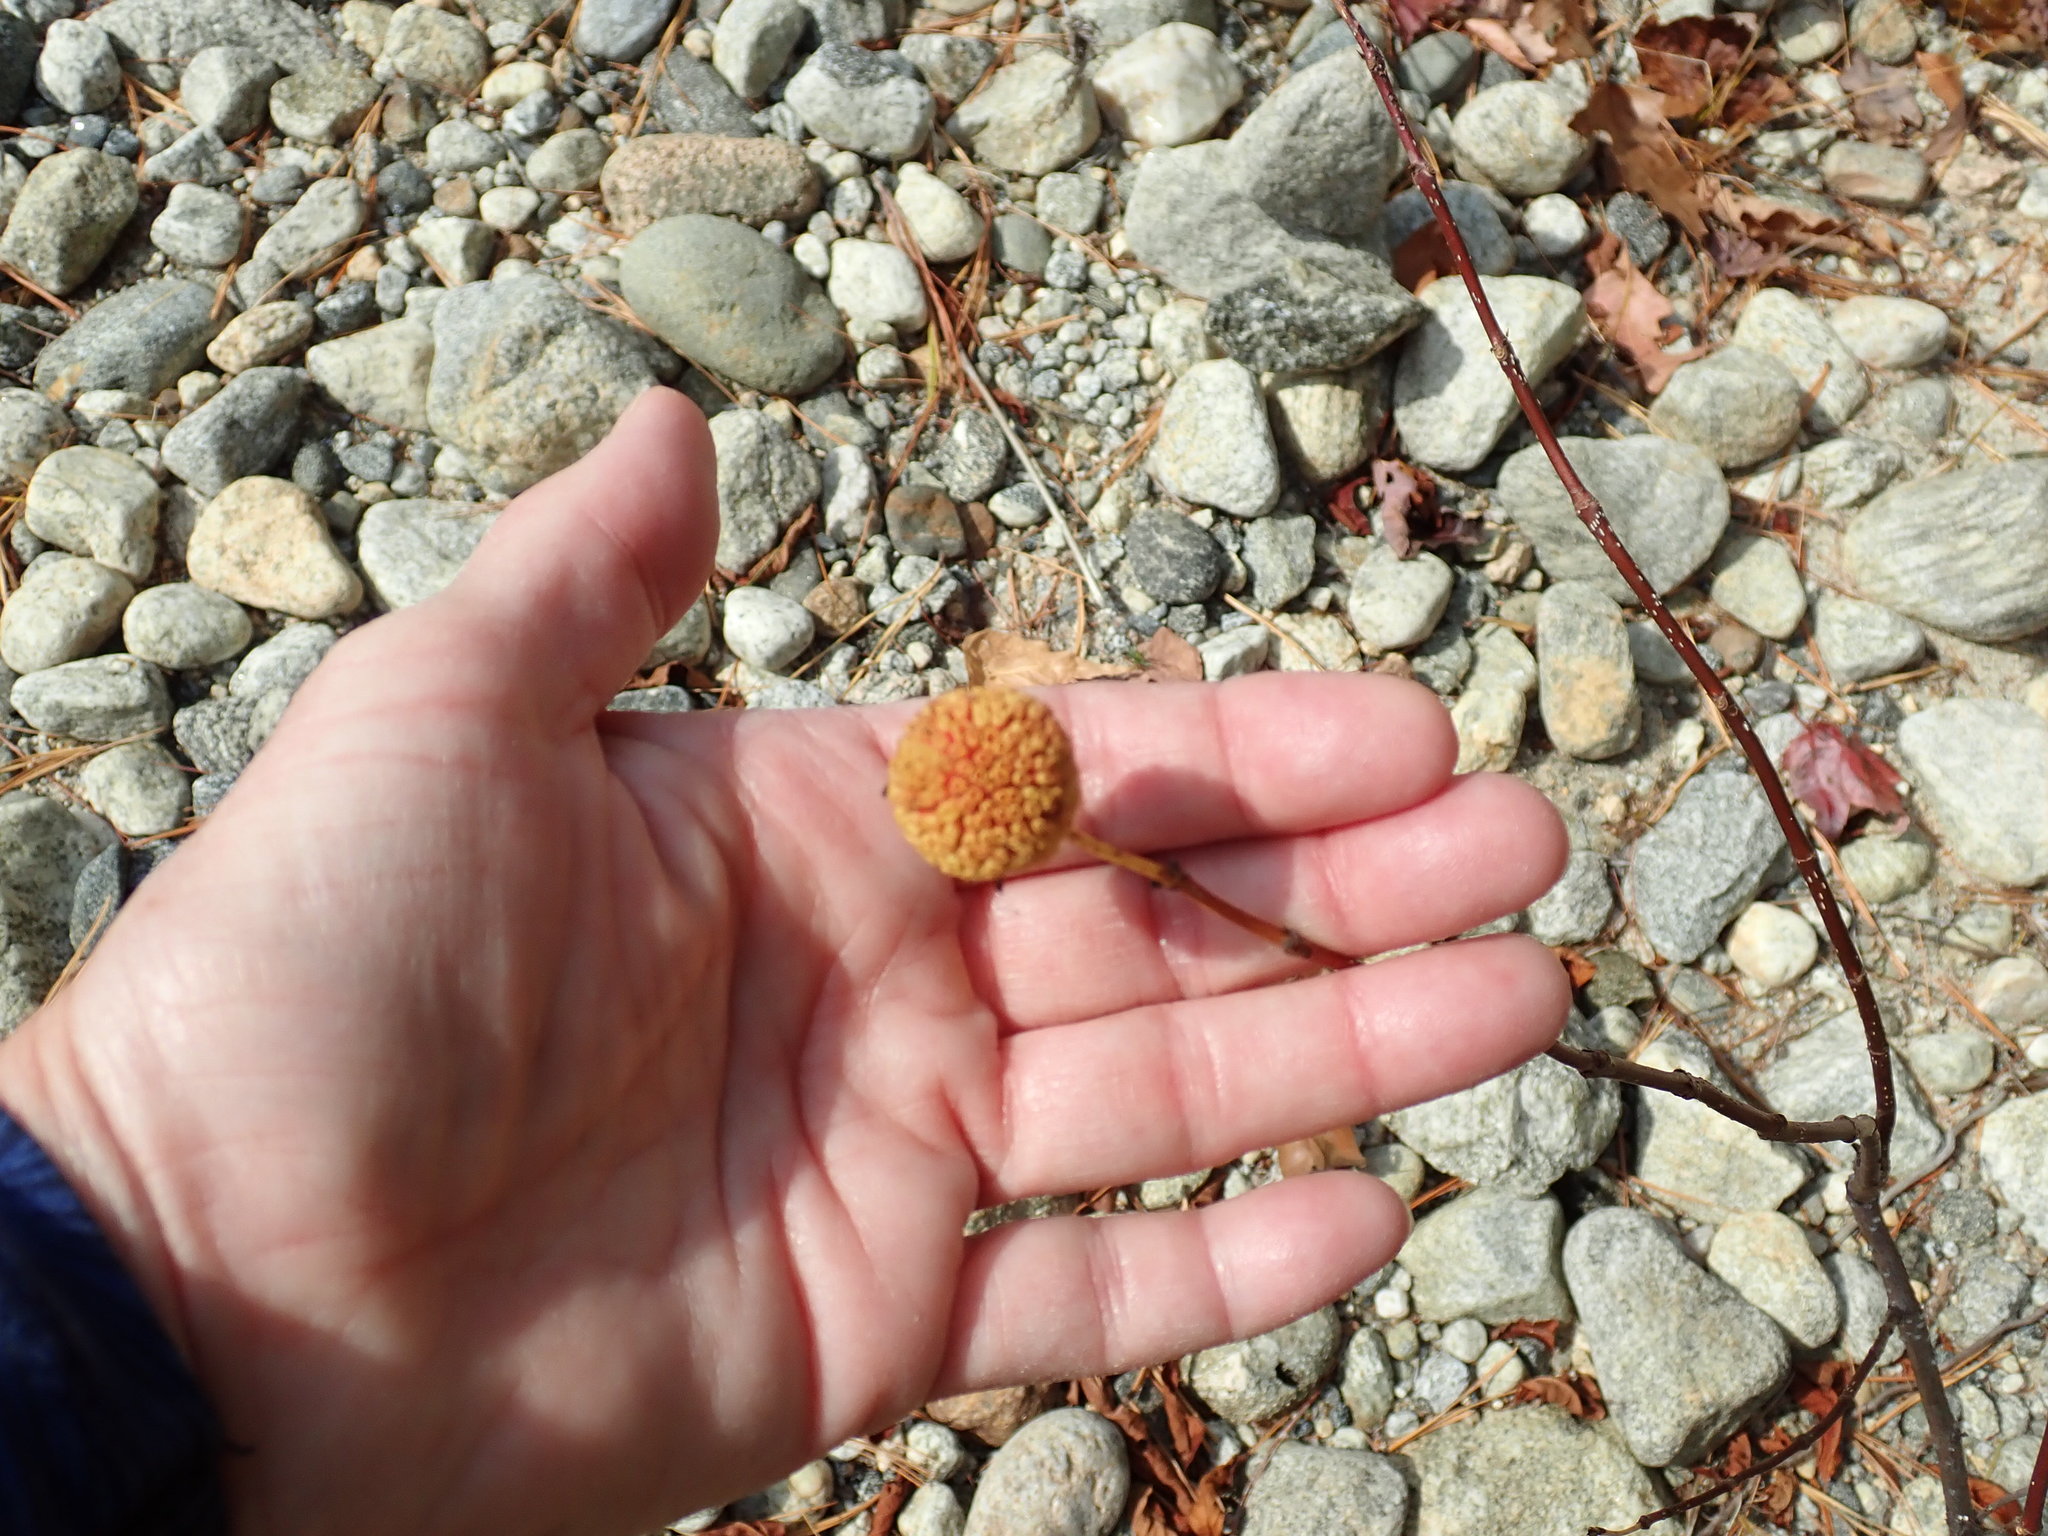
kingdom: Plantae
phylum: Tracheophyta
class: Magnoliopsida
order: Gentianales
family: Rubiaceae
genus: Cephalanthus
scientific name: Cephalanthus occidentalis
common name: Button-willow
